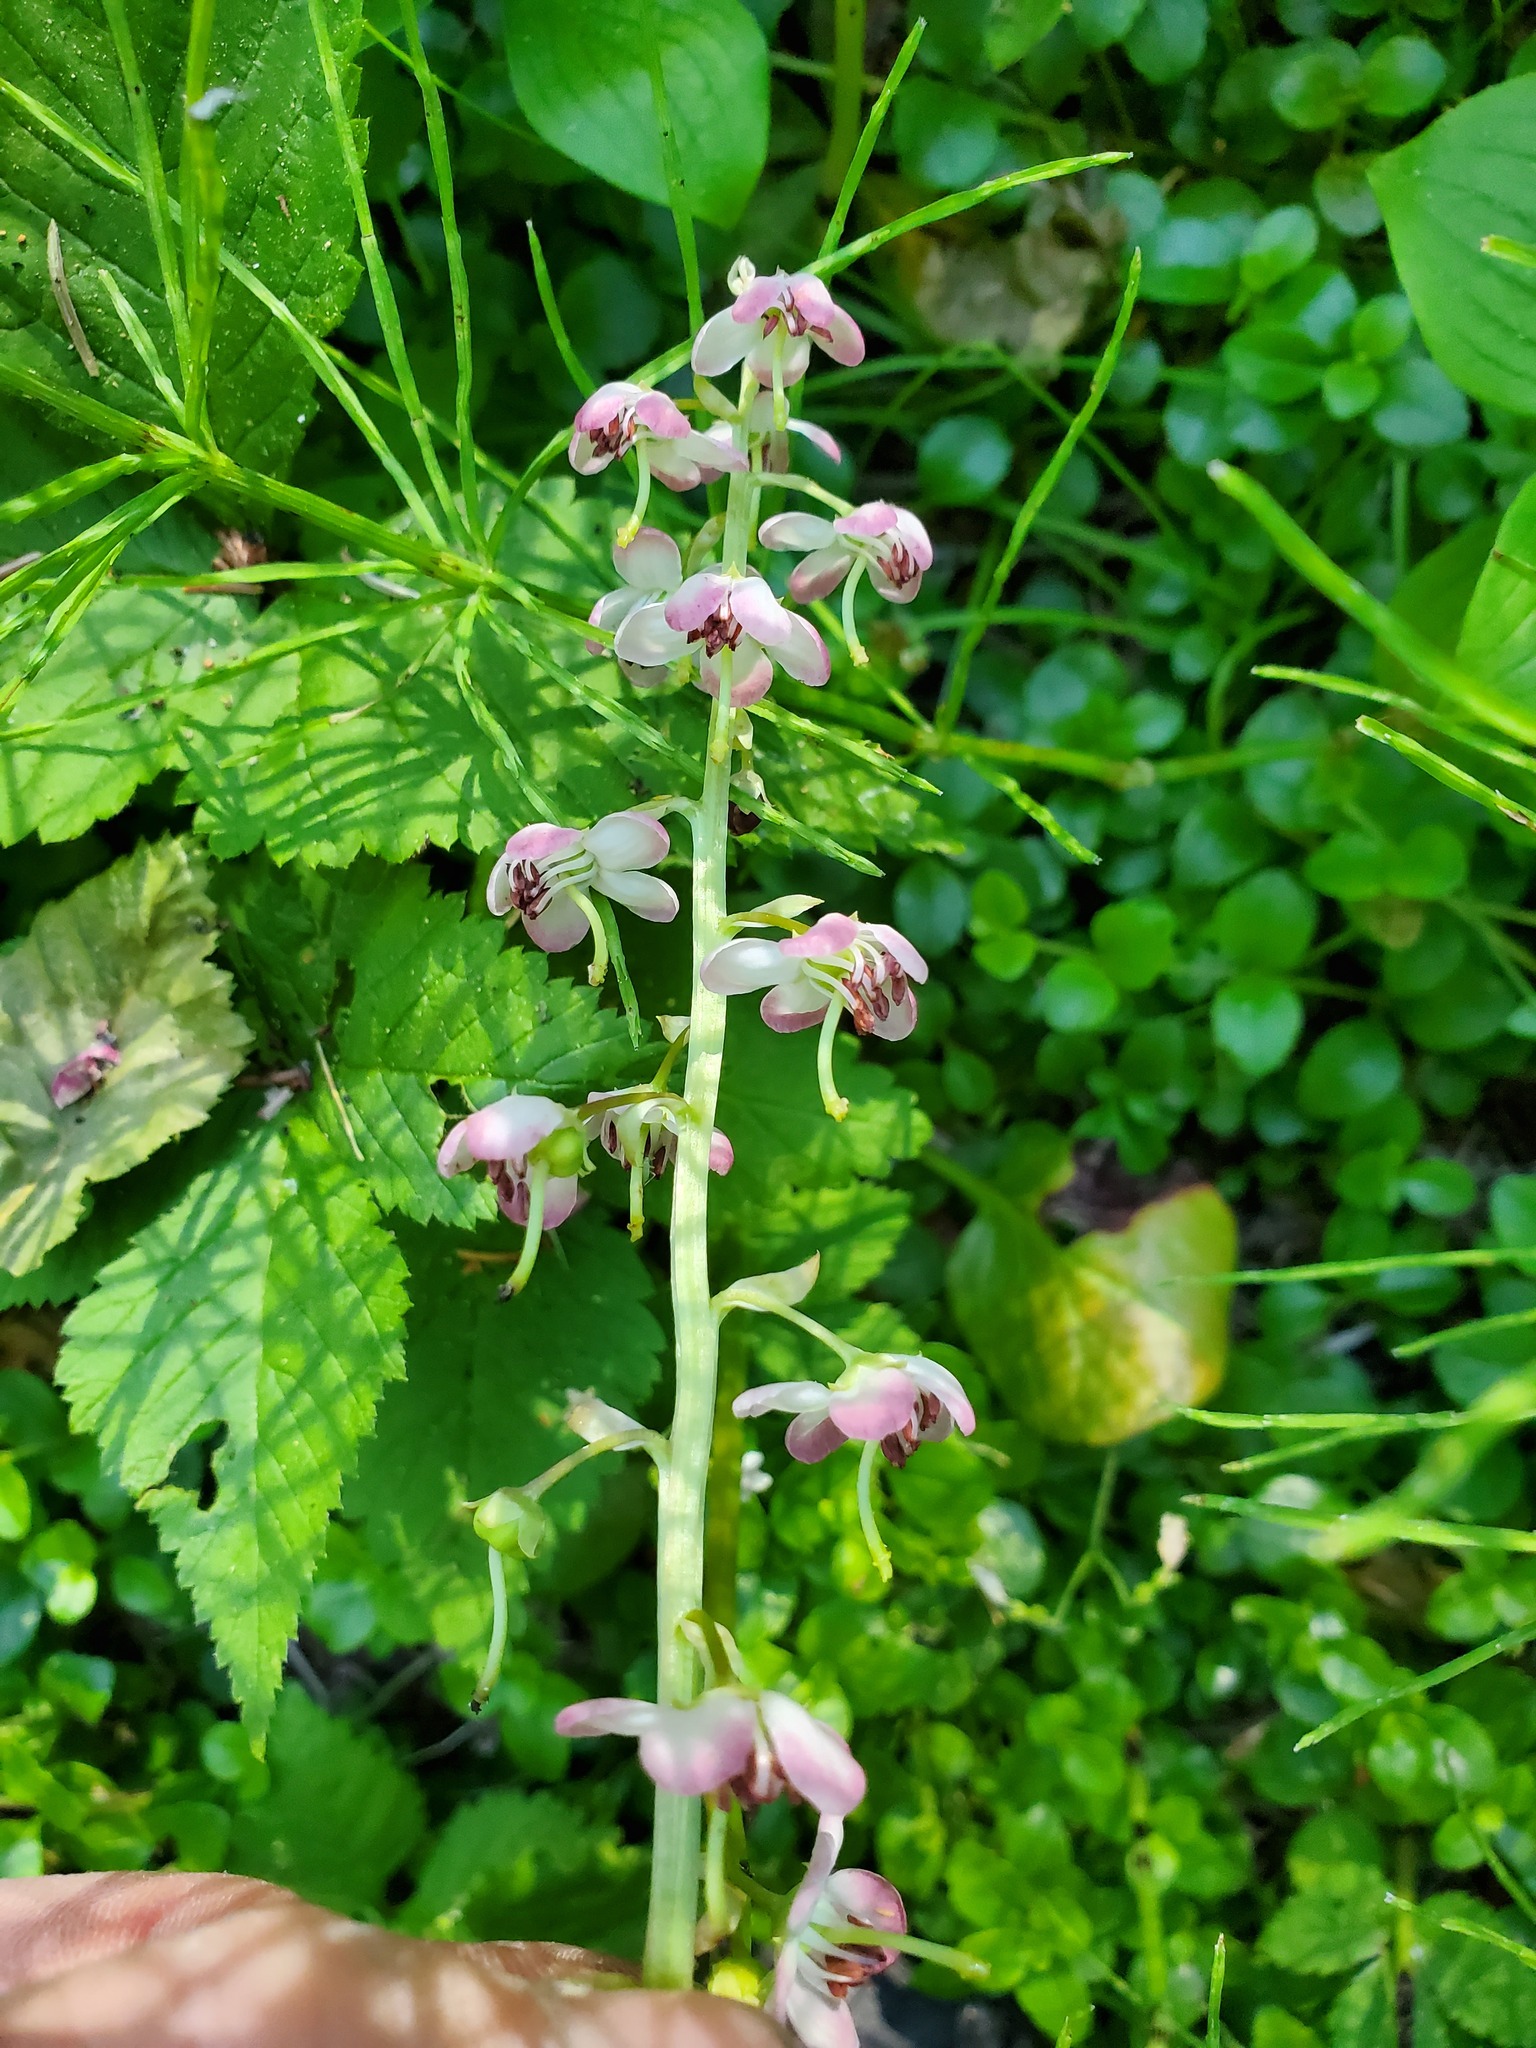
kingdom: Plantae
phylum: Tracheophyta
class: Magnoliopsida
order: Ericales
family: Ericaceae
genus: Pyrola
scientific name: Pyrola asarifolia
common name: Bog wintergreen
